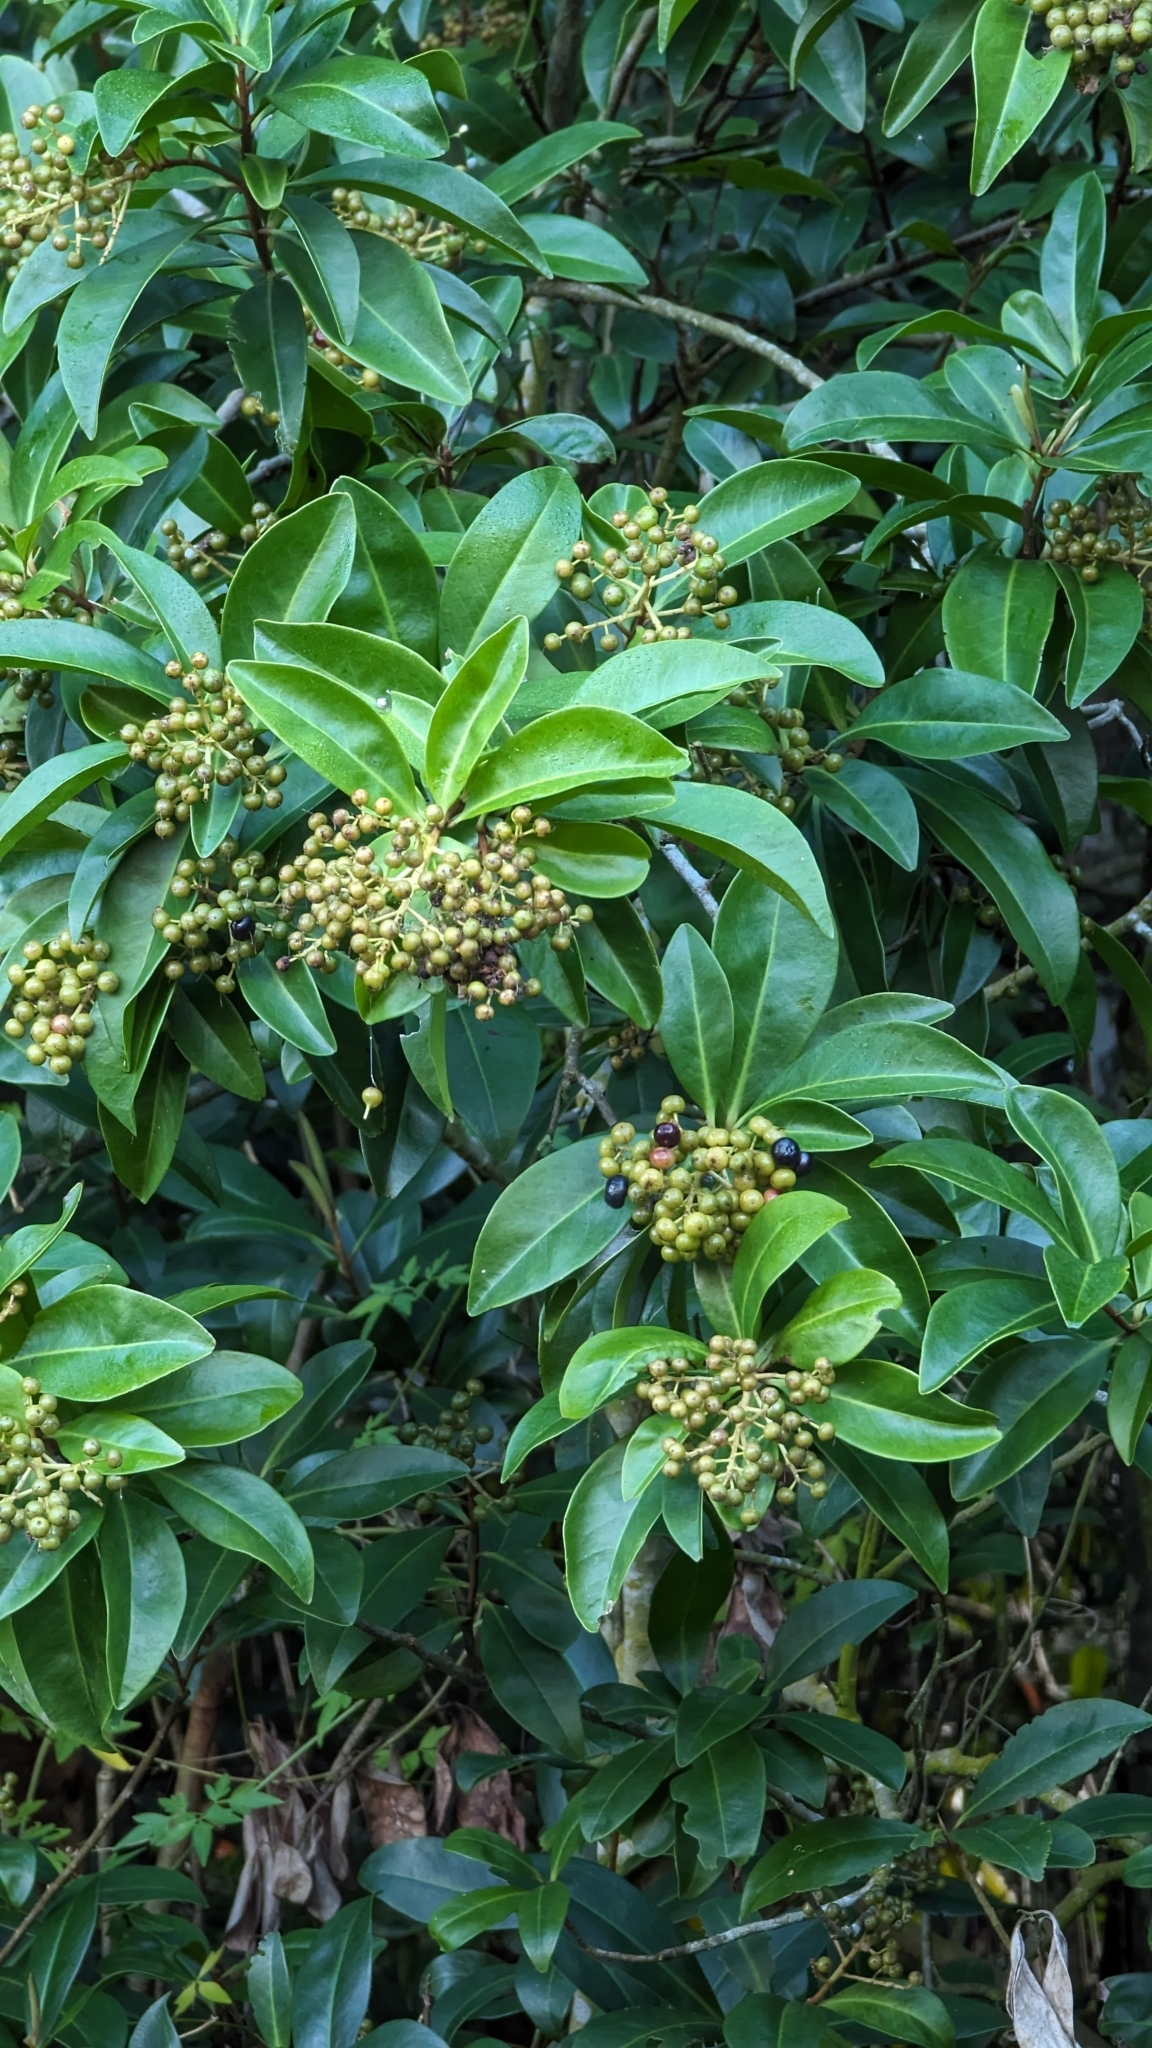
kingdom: Plantae
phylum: Tracheophyta
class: Magnoliopsida
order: Ericales
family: Primulaceae
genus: Ardisia
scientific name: Ardisia escallonioides
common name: Island marlberry
